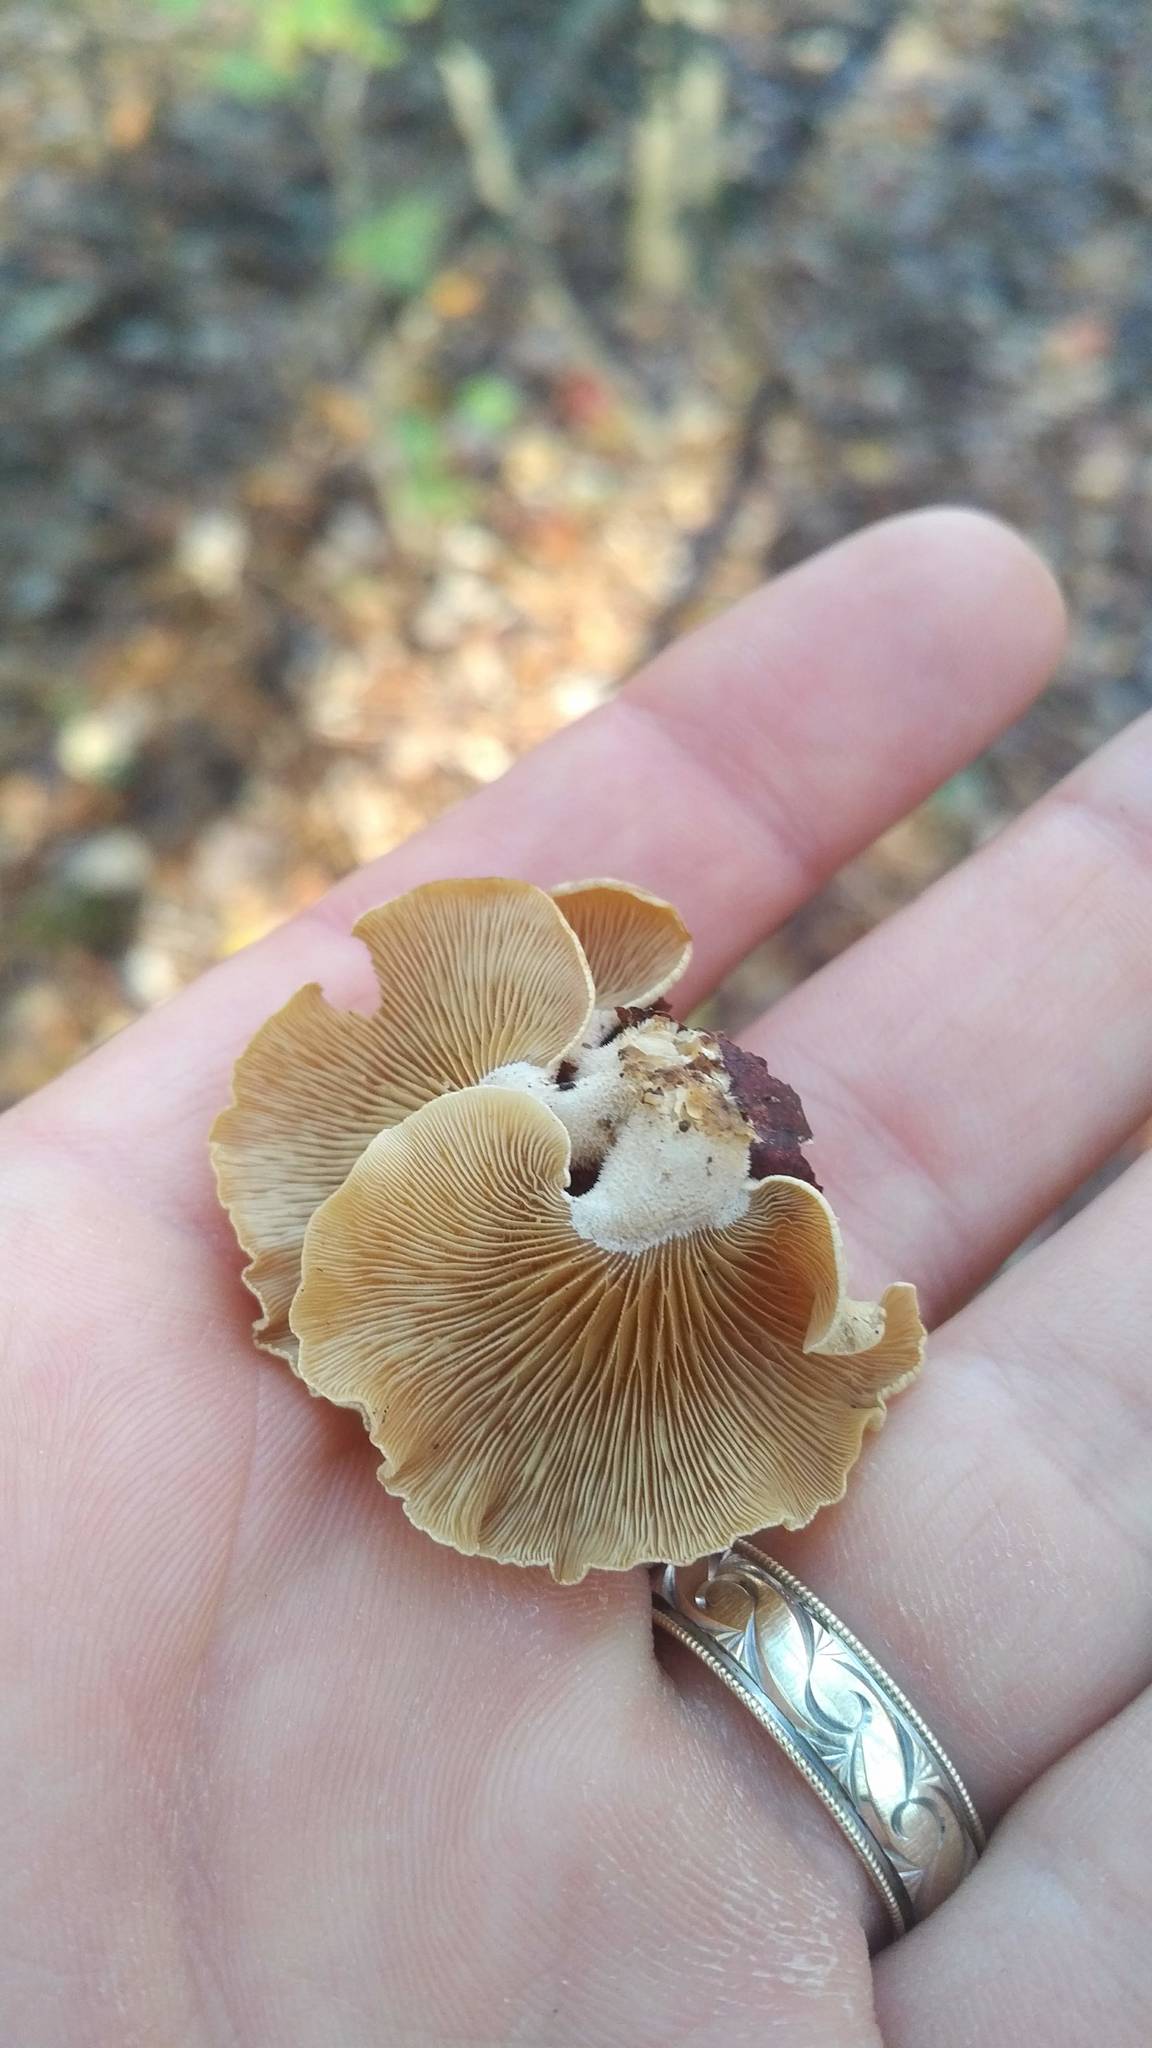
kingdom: Fungi
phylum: Basidiomycota
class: Agaricomycetes
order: Agaricales
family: Mycenaceae
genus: Panellus
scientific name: Panellus stipticus
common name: Bitter oysterling
